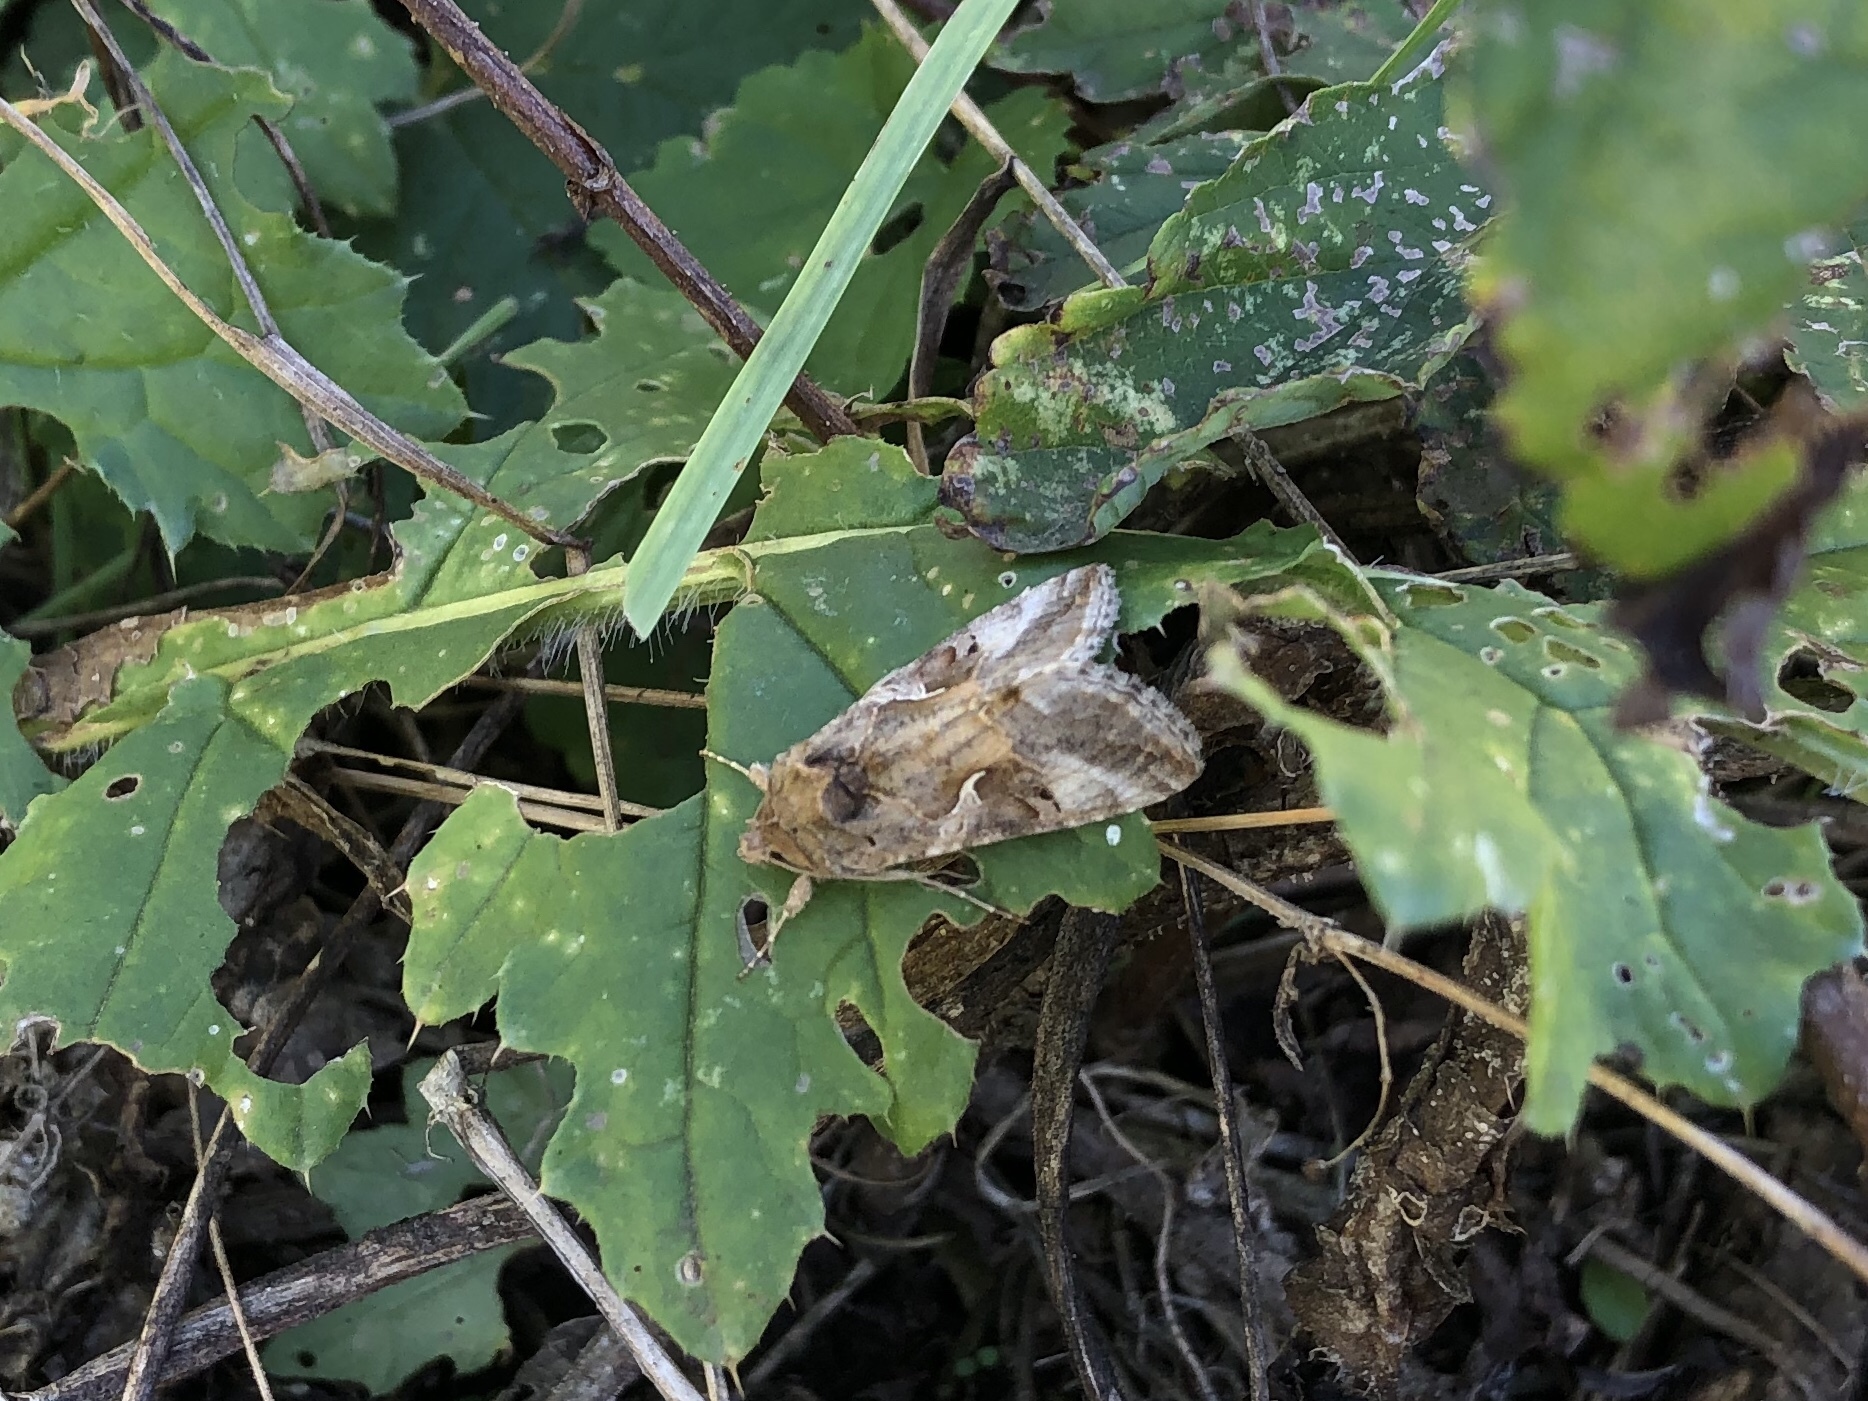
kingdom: Animalia
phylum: Arthropoda
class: Insecta
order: Lepidoptera
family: Noctuidae
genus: Autographa
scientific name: Autographa gamma
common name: Silver y
